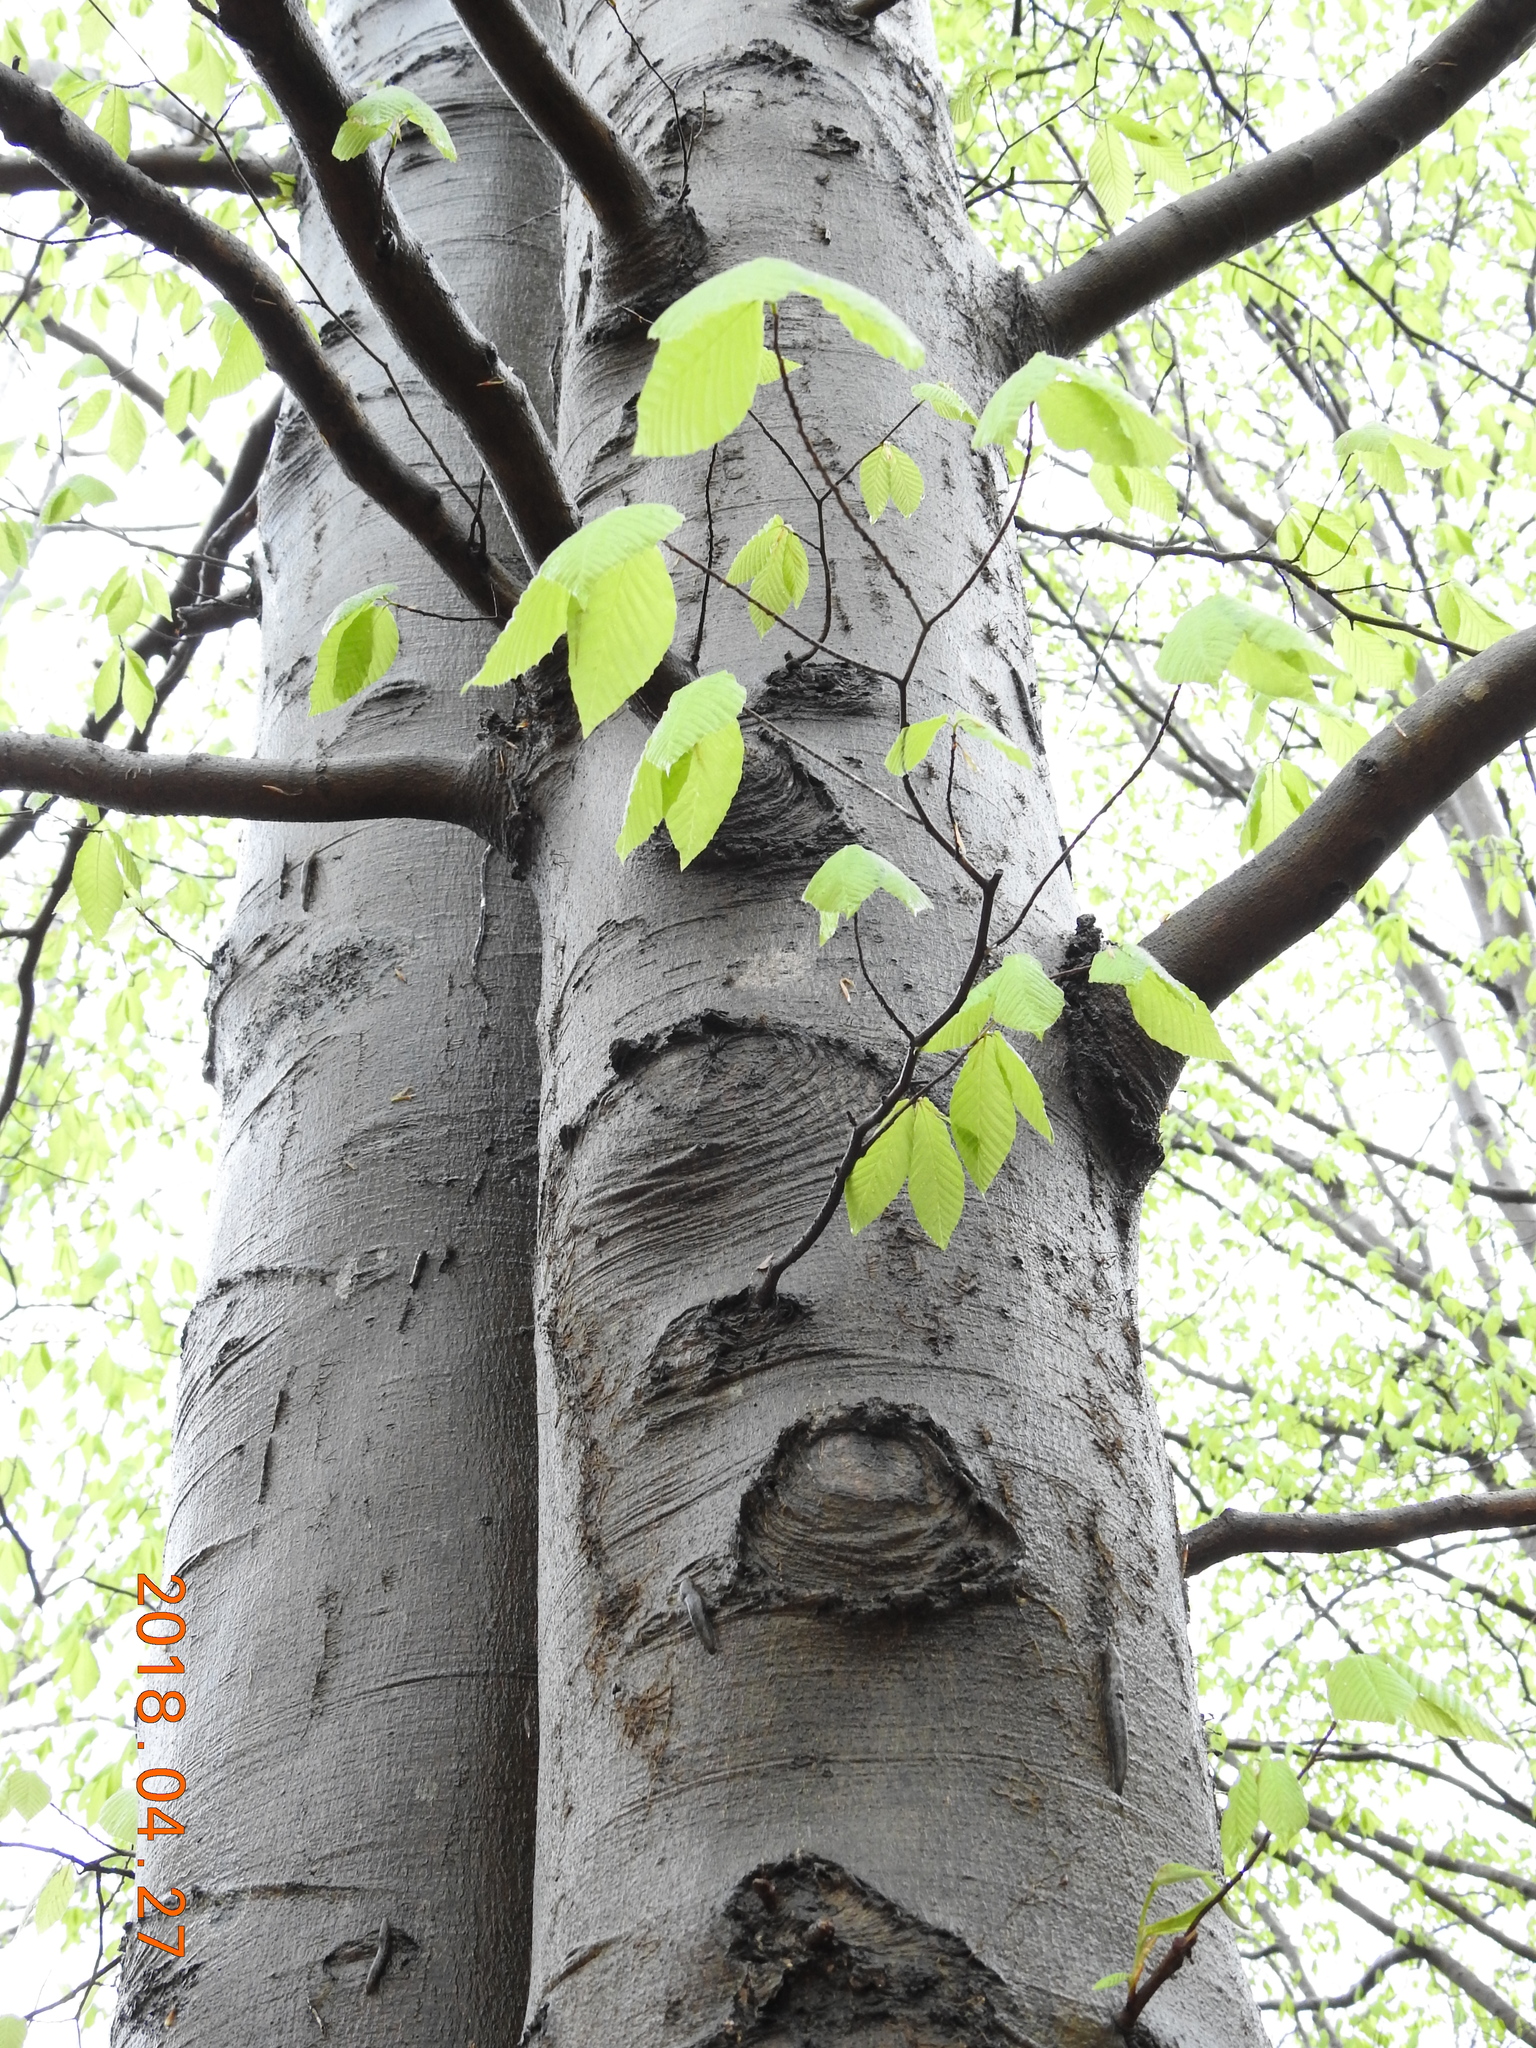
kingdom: Plantae
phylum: Tracheophyta
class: Magnoliopsida
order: Fagales
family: Fagaceae
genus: Fagus
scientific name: Fagus grandifolia
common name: American beech
